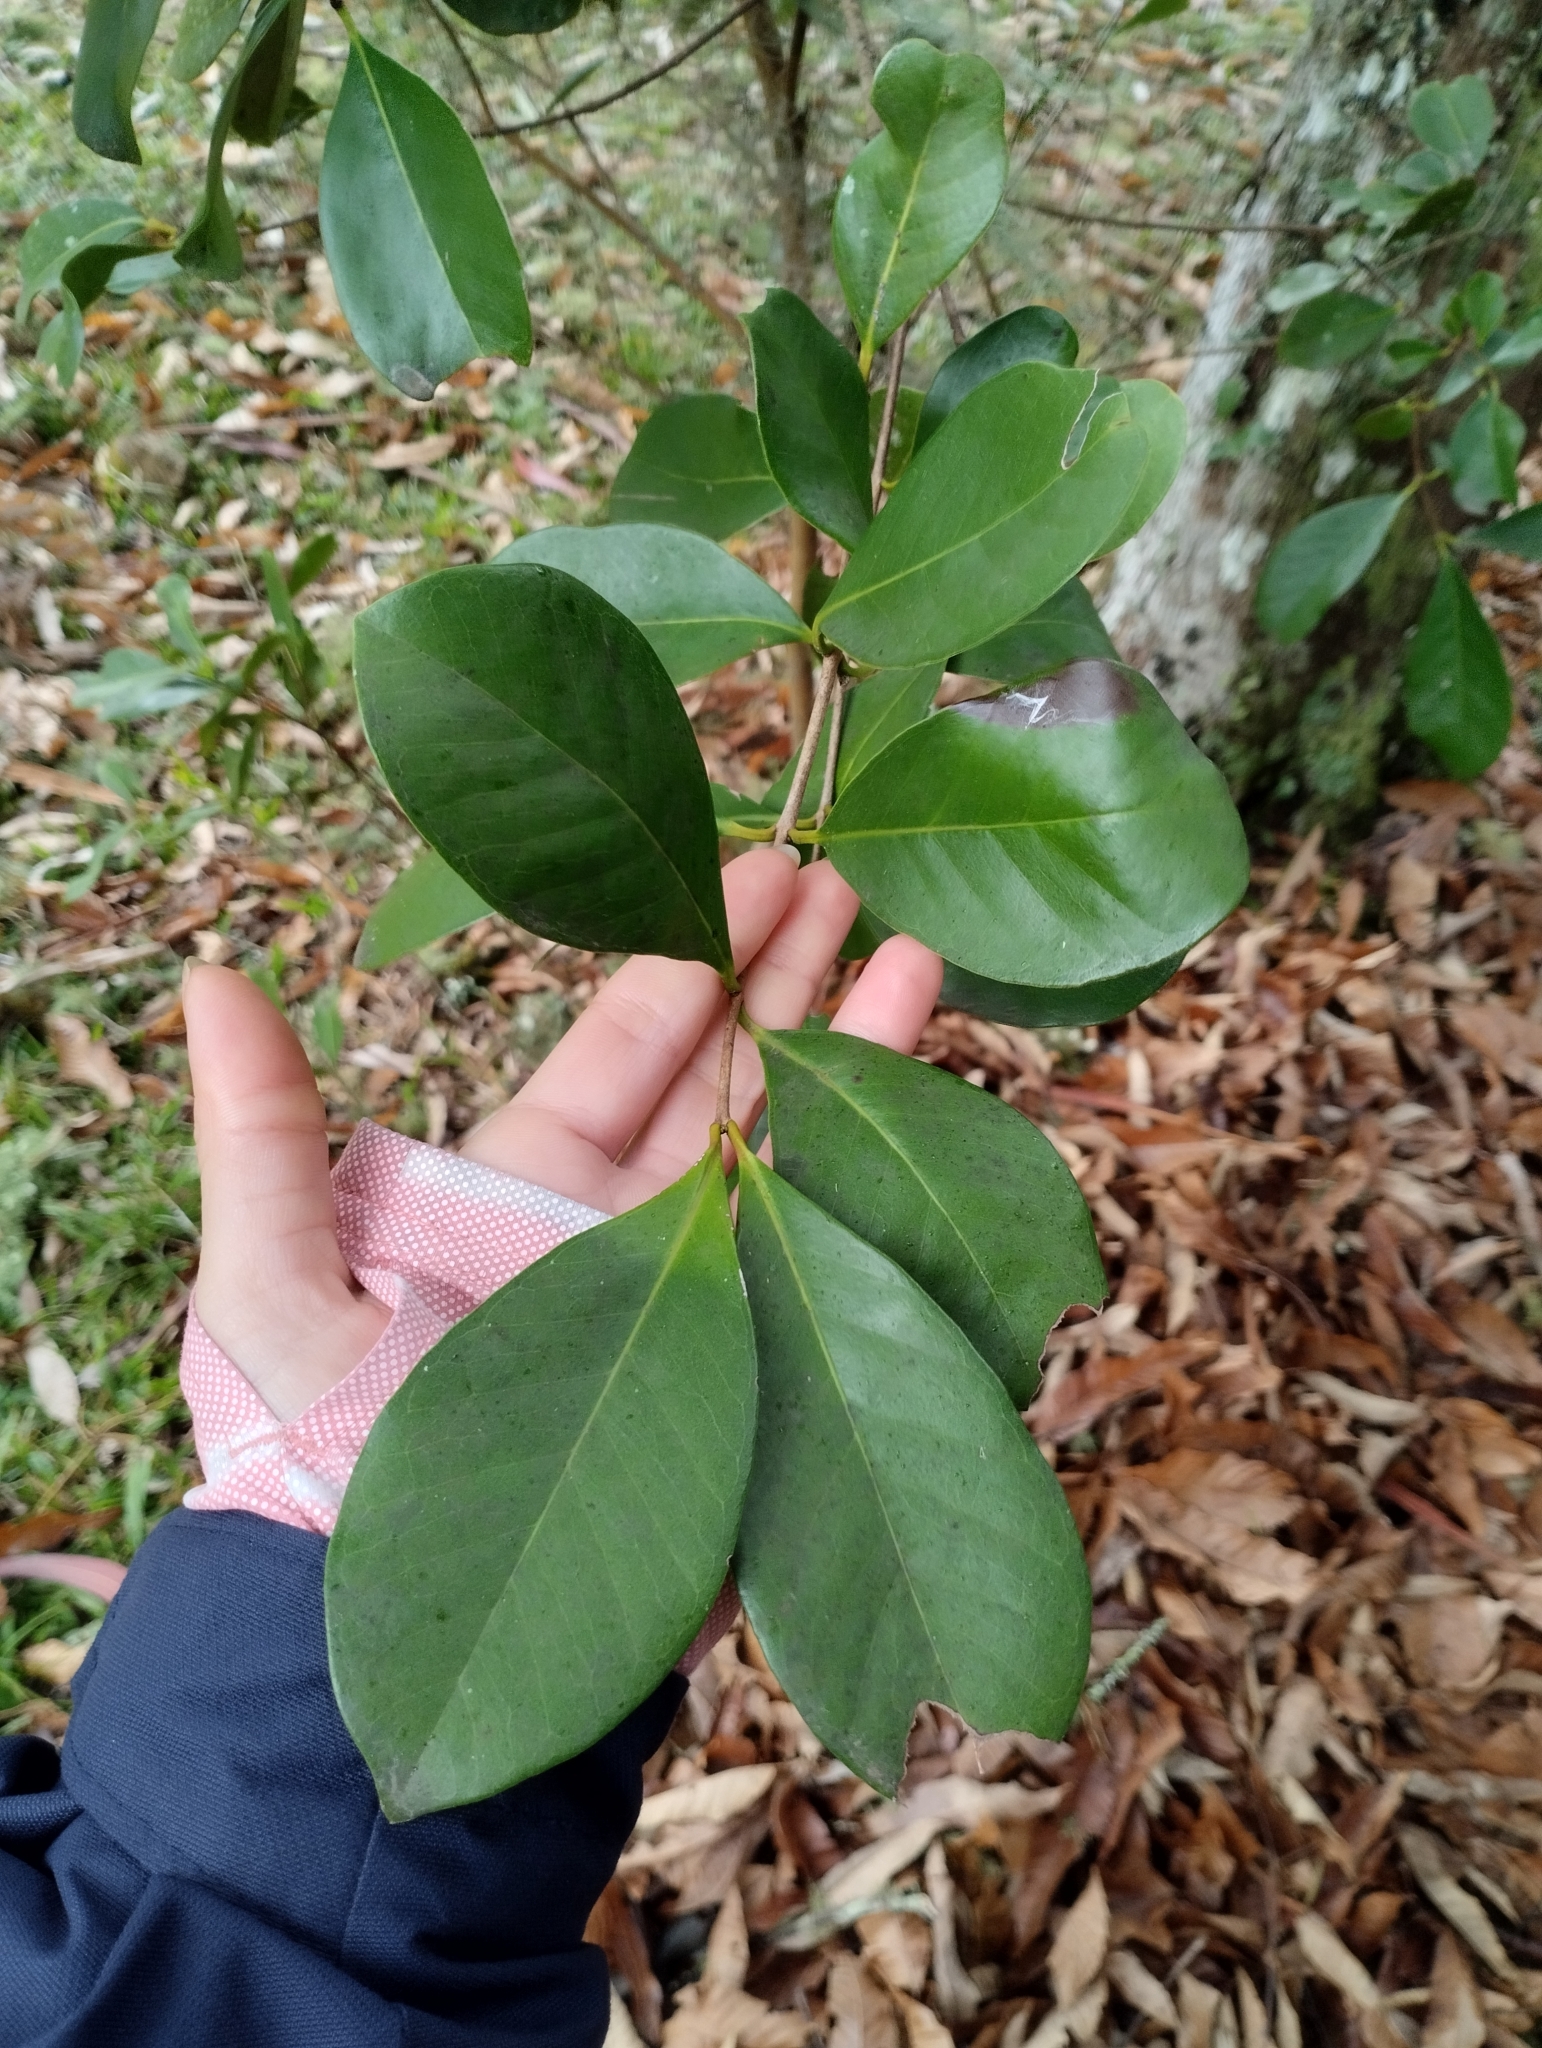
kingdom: Plantae
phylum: Tracheophyta
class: Magnoliopsida
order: Myrtales
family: Myrtaceae
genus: Psidium
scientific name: Psidium cattleianum
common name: Strawberry guava
